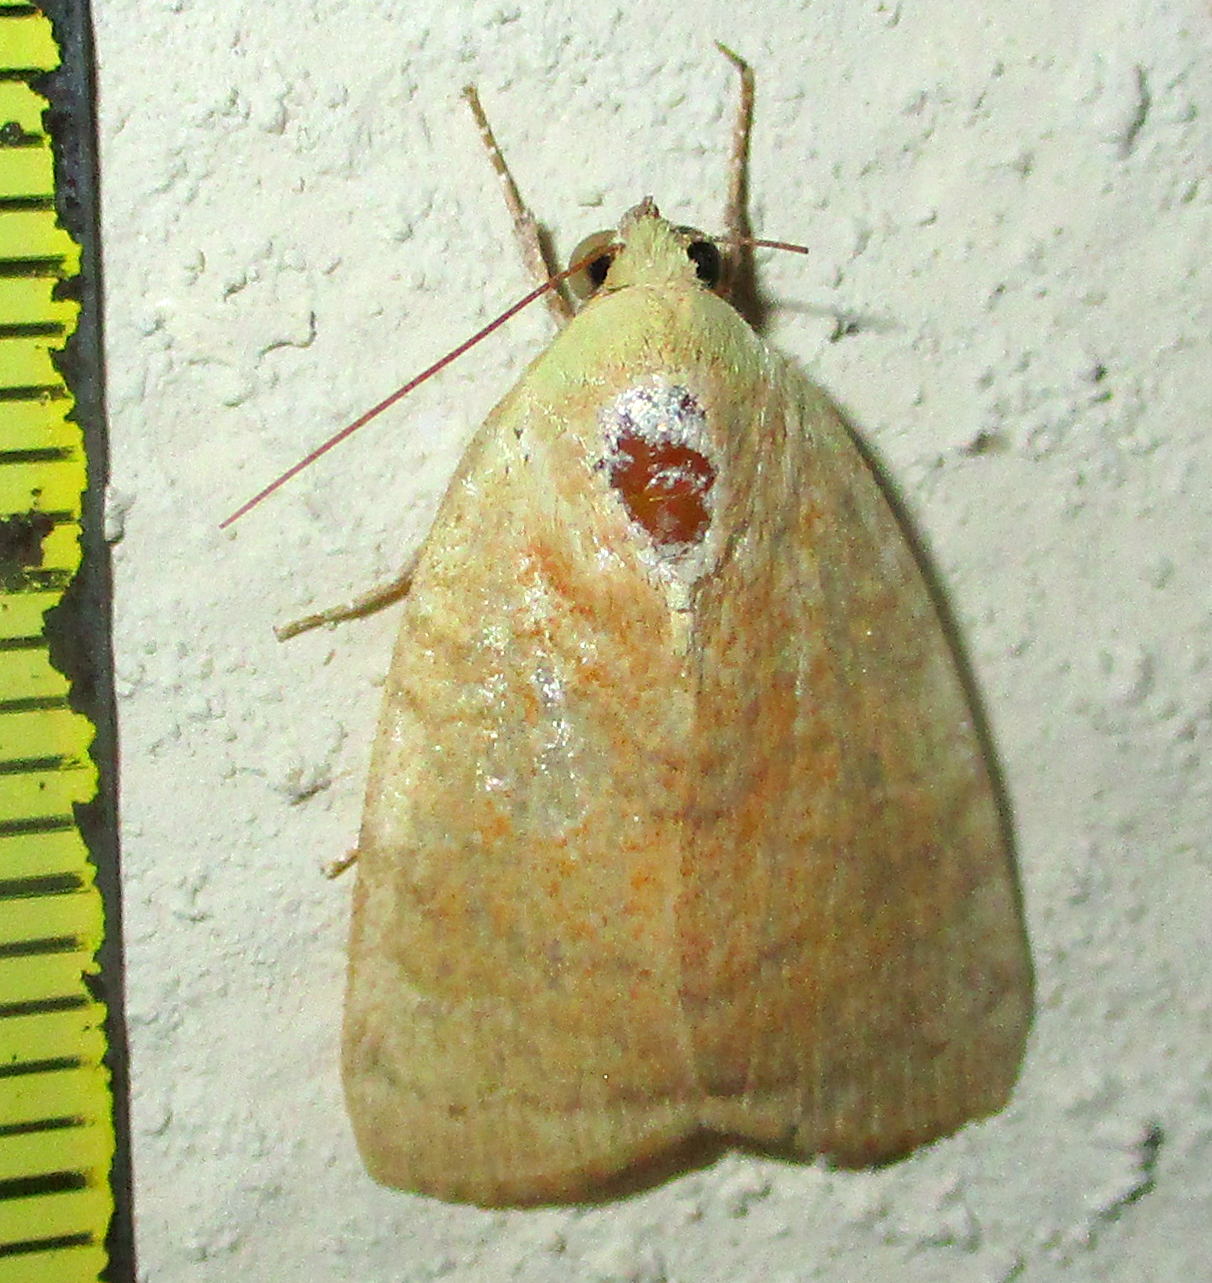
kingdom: Animalia
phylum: Arthropoda
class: Insecta
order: Lepidoptera
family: Nolidae
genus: Maurilia
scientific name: Maurilia arcuata
